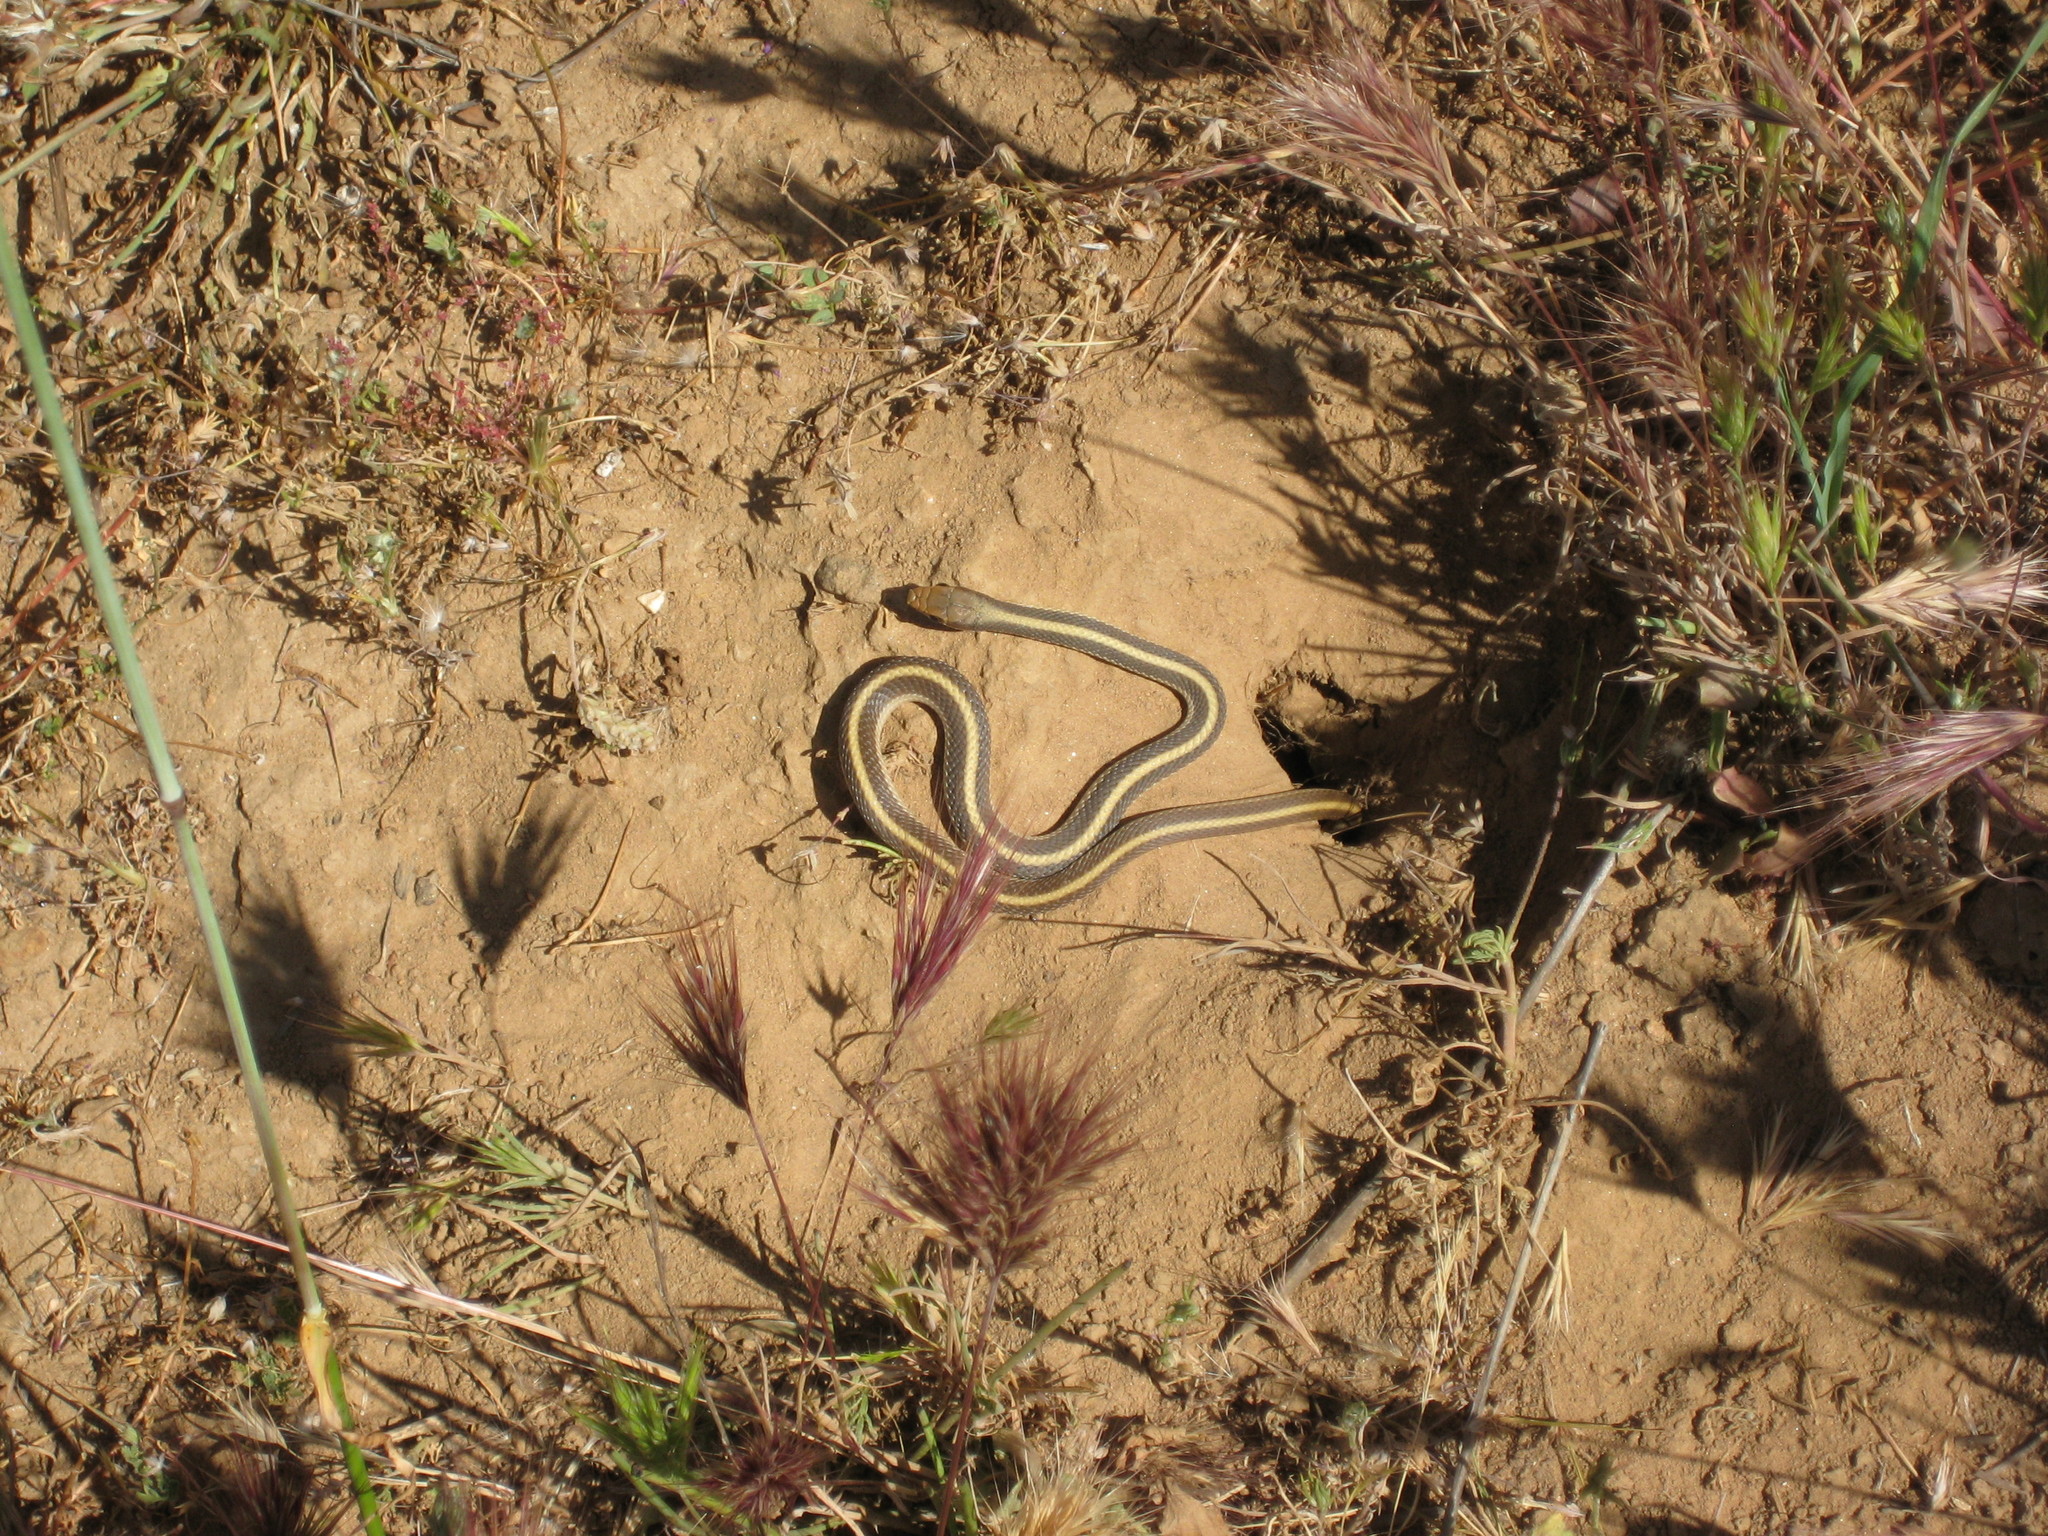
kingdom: Animalia
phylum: Chordata
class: Squamata
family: Colubridae
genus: Salvadora
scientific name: Salvadora hexalepis
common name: Western patchnose snake
